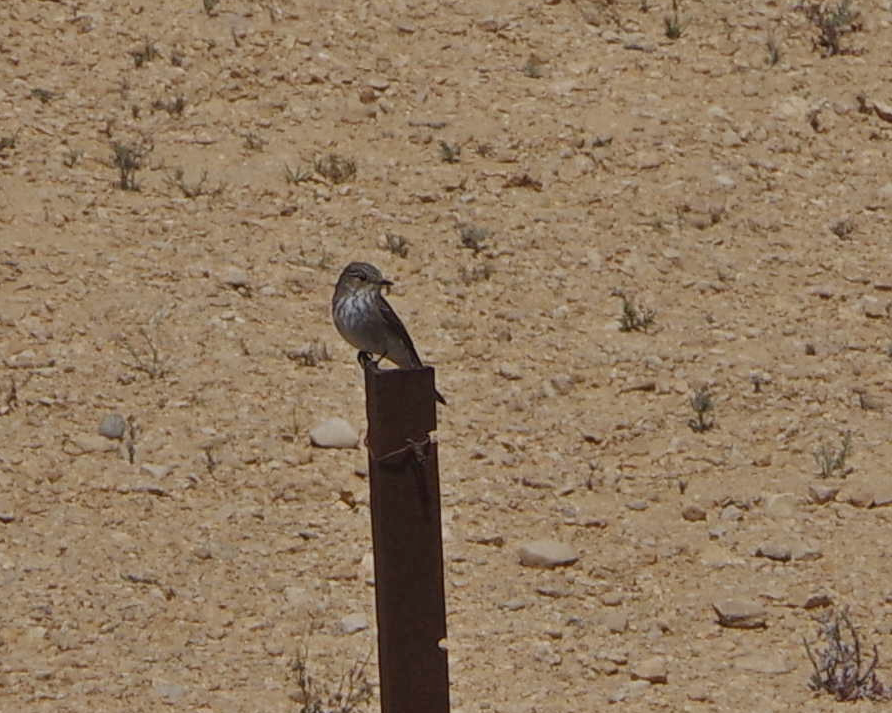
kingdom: Animalia
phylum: Chordata
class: Aves
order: Passeriformes
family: Muscicapidae
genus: Muscicapa
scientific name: Muscicapa striata
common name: Spotted flycatcher
